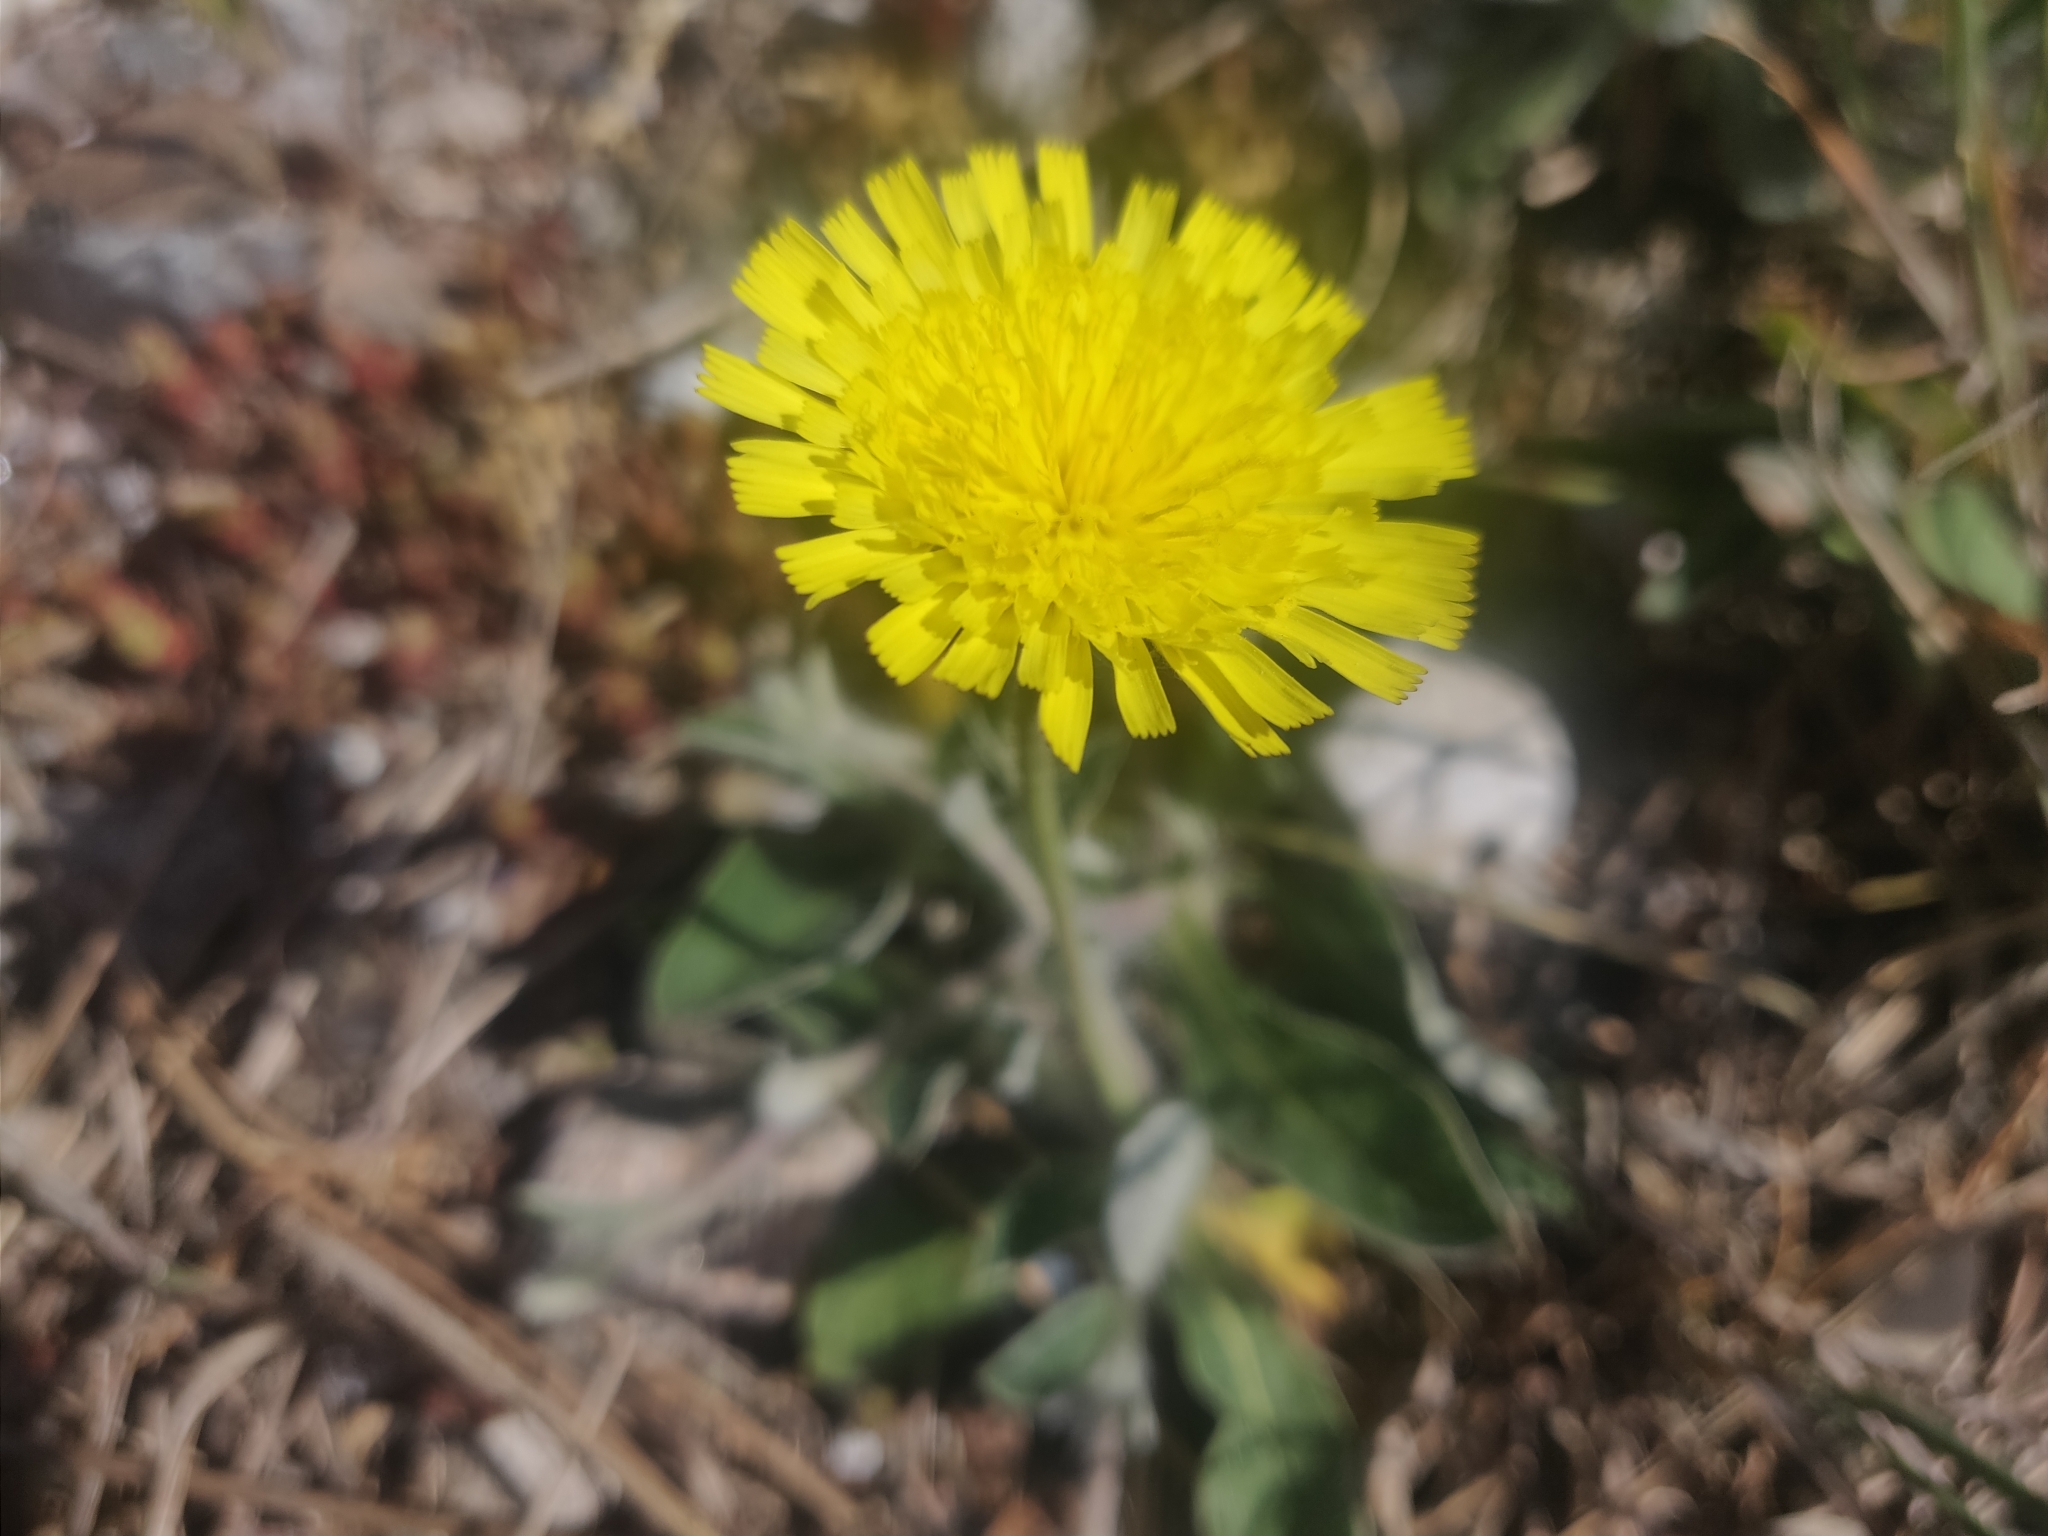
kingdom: Plantae
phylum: Tracheophyta
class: Magnoliopsida
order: Asterales
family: Asteraceae
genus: Pilosella
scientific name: Pilosella officinarum
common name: Mouse-ear hawkweed
